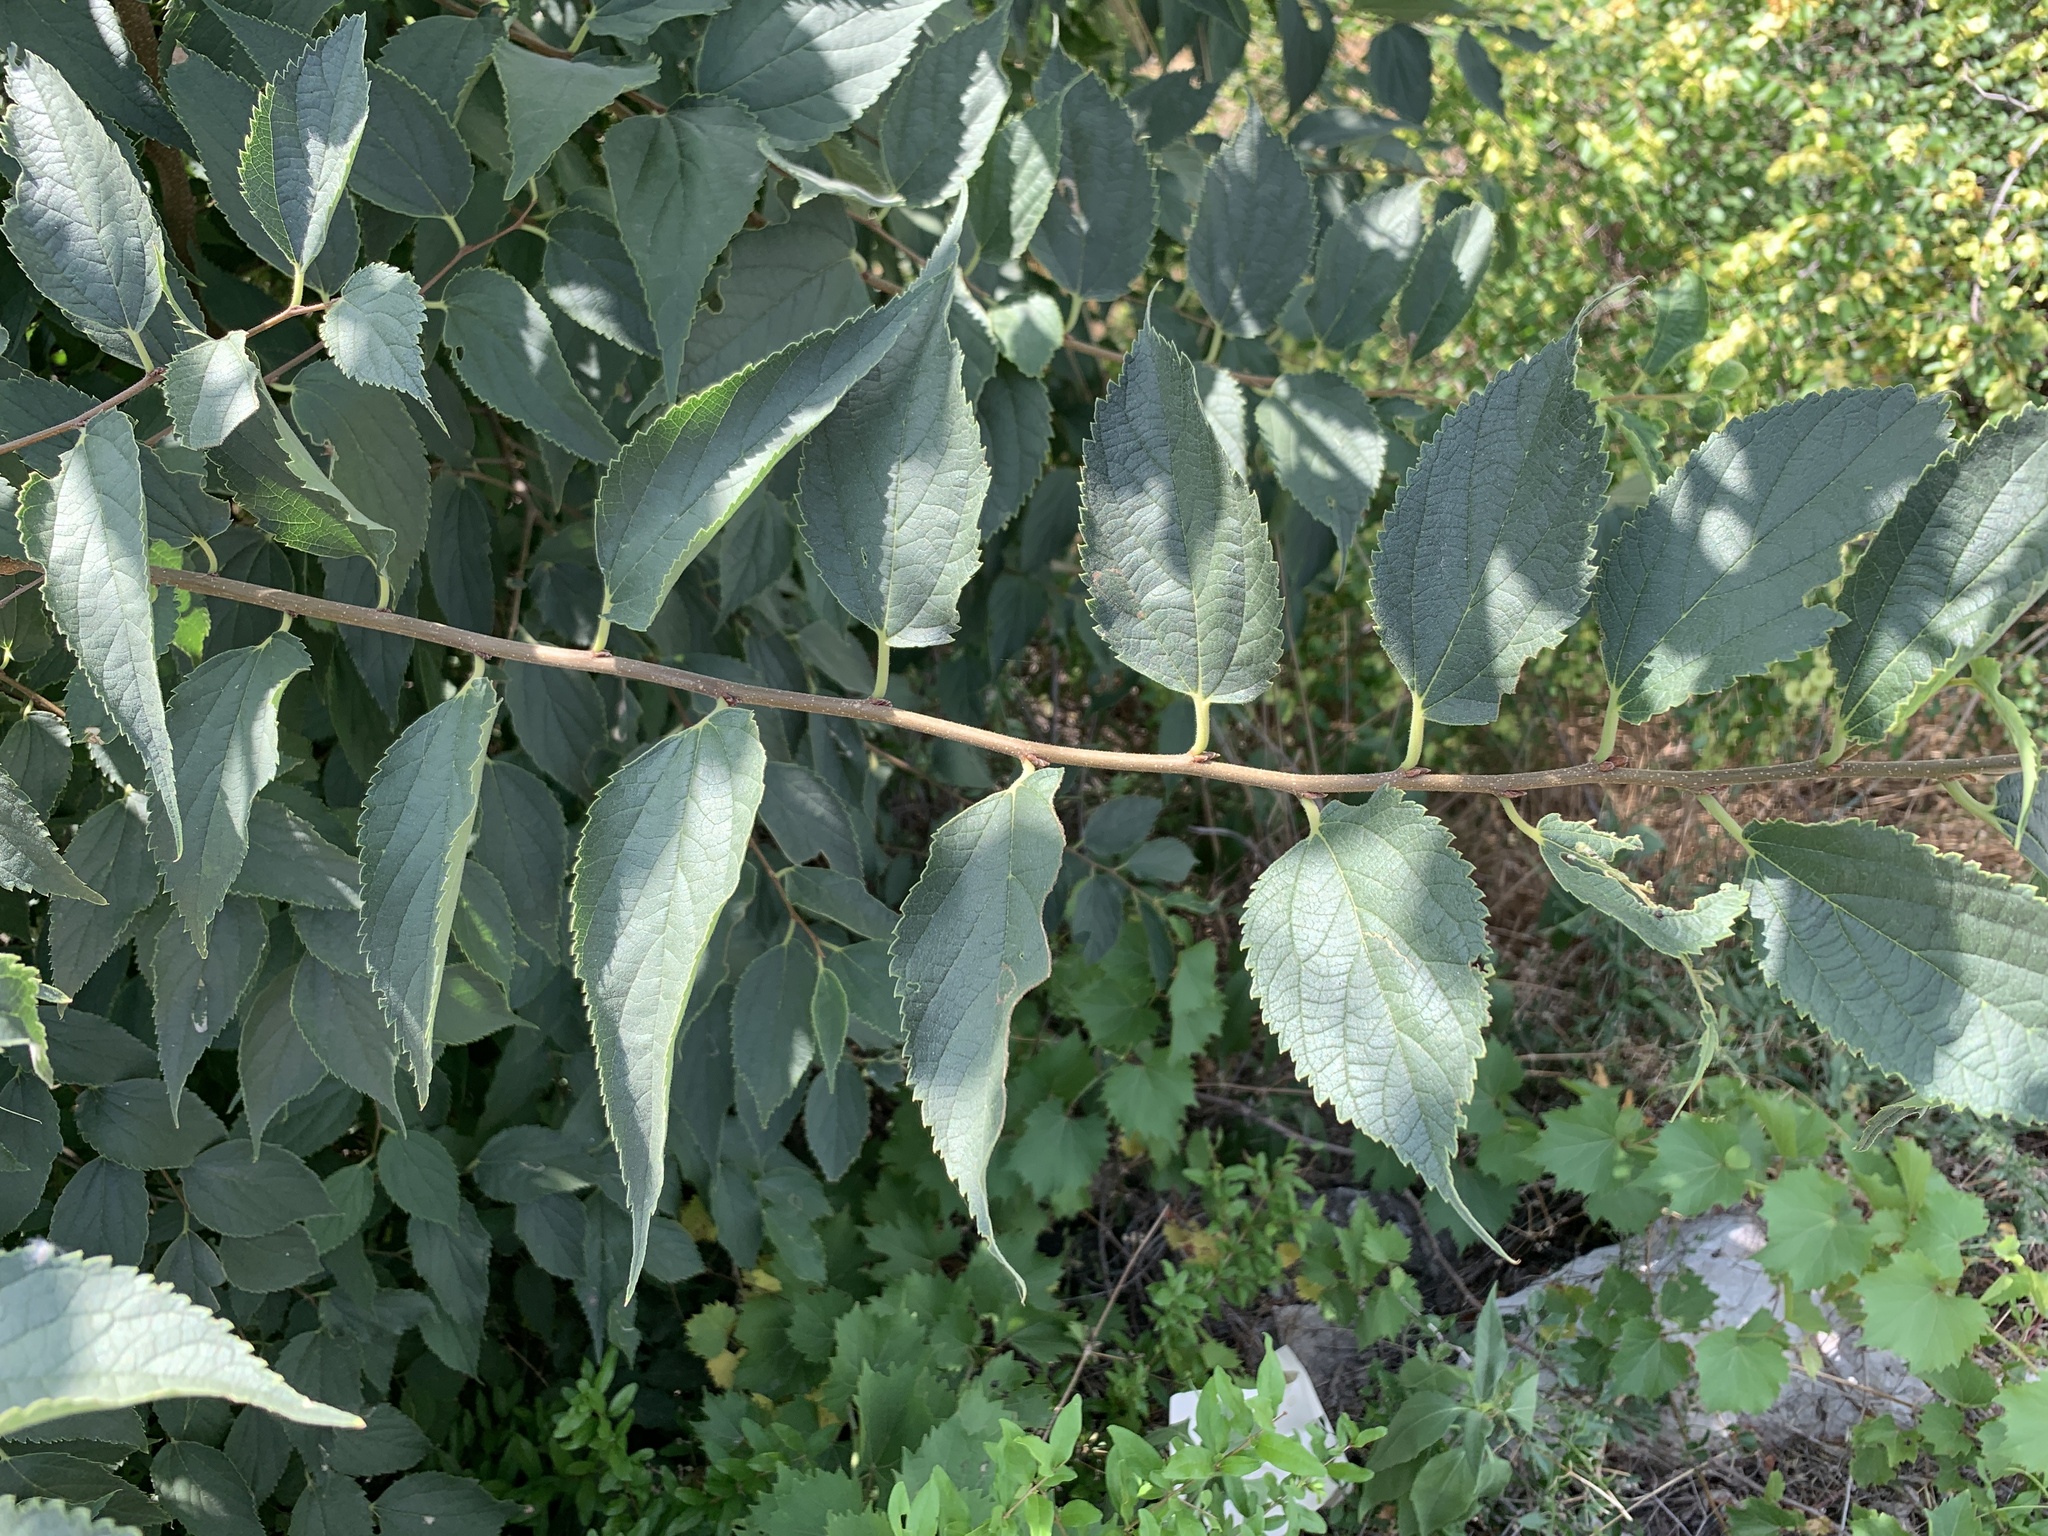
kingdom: Plantae
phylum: Tracheophyta
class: Magnoliopsida
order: Rosales
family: Cannabaceae
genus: Celtis
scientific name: Celtis australis
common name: European hackberry
